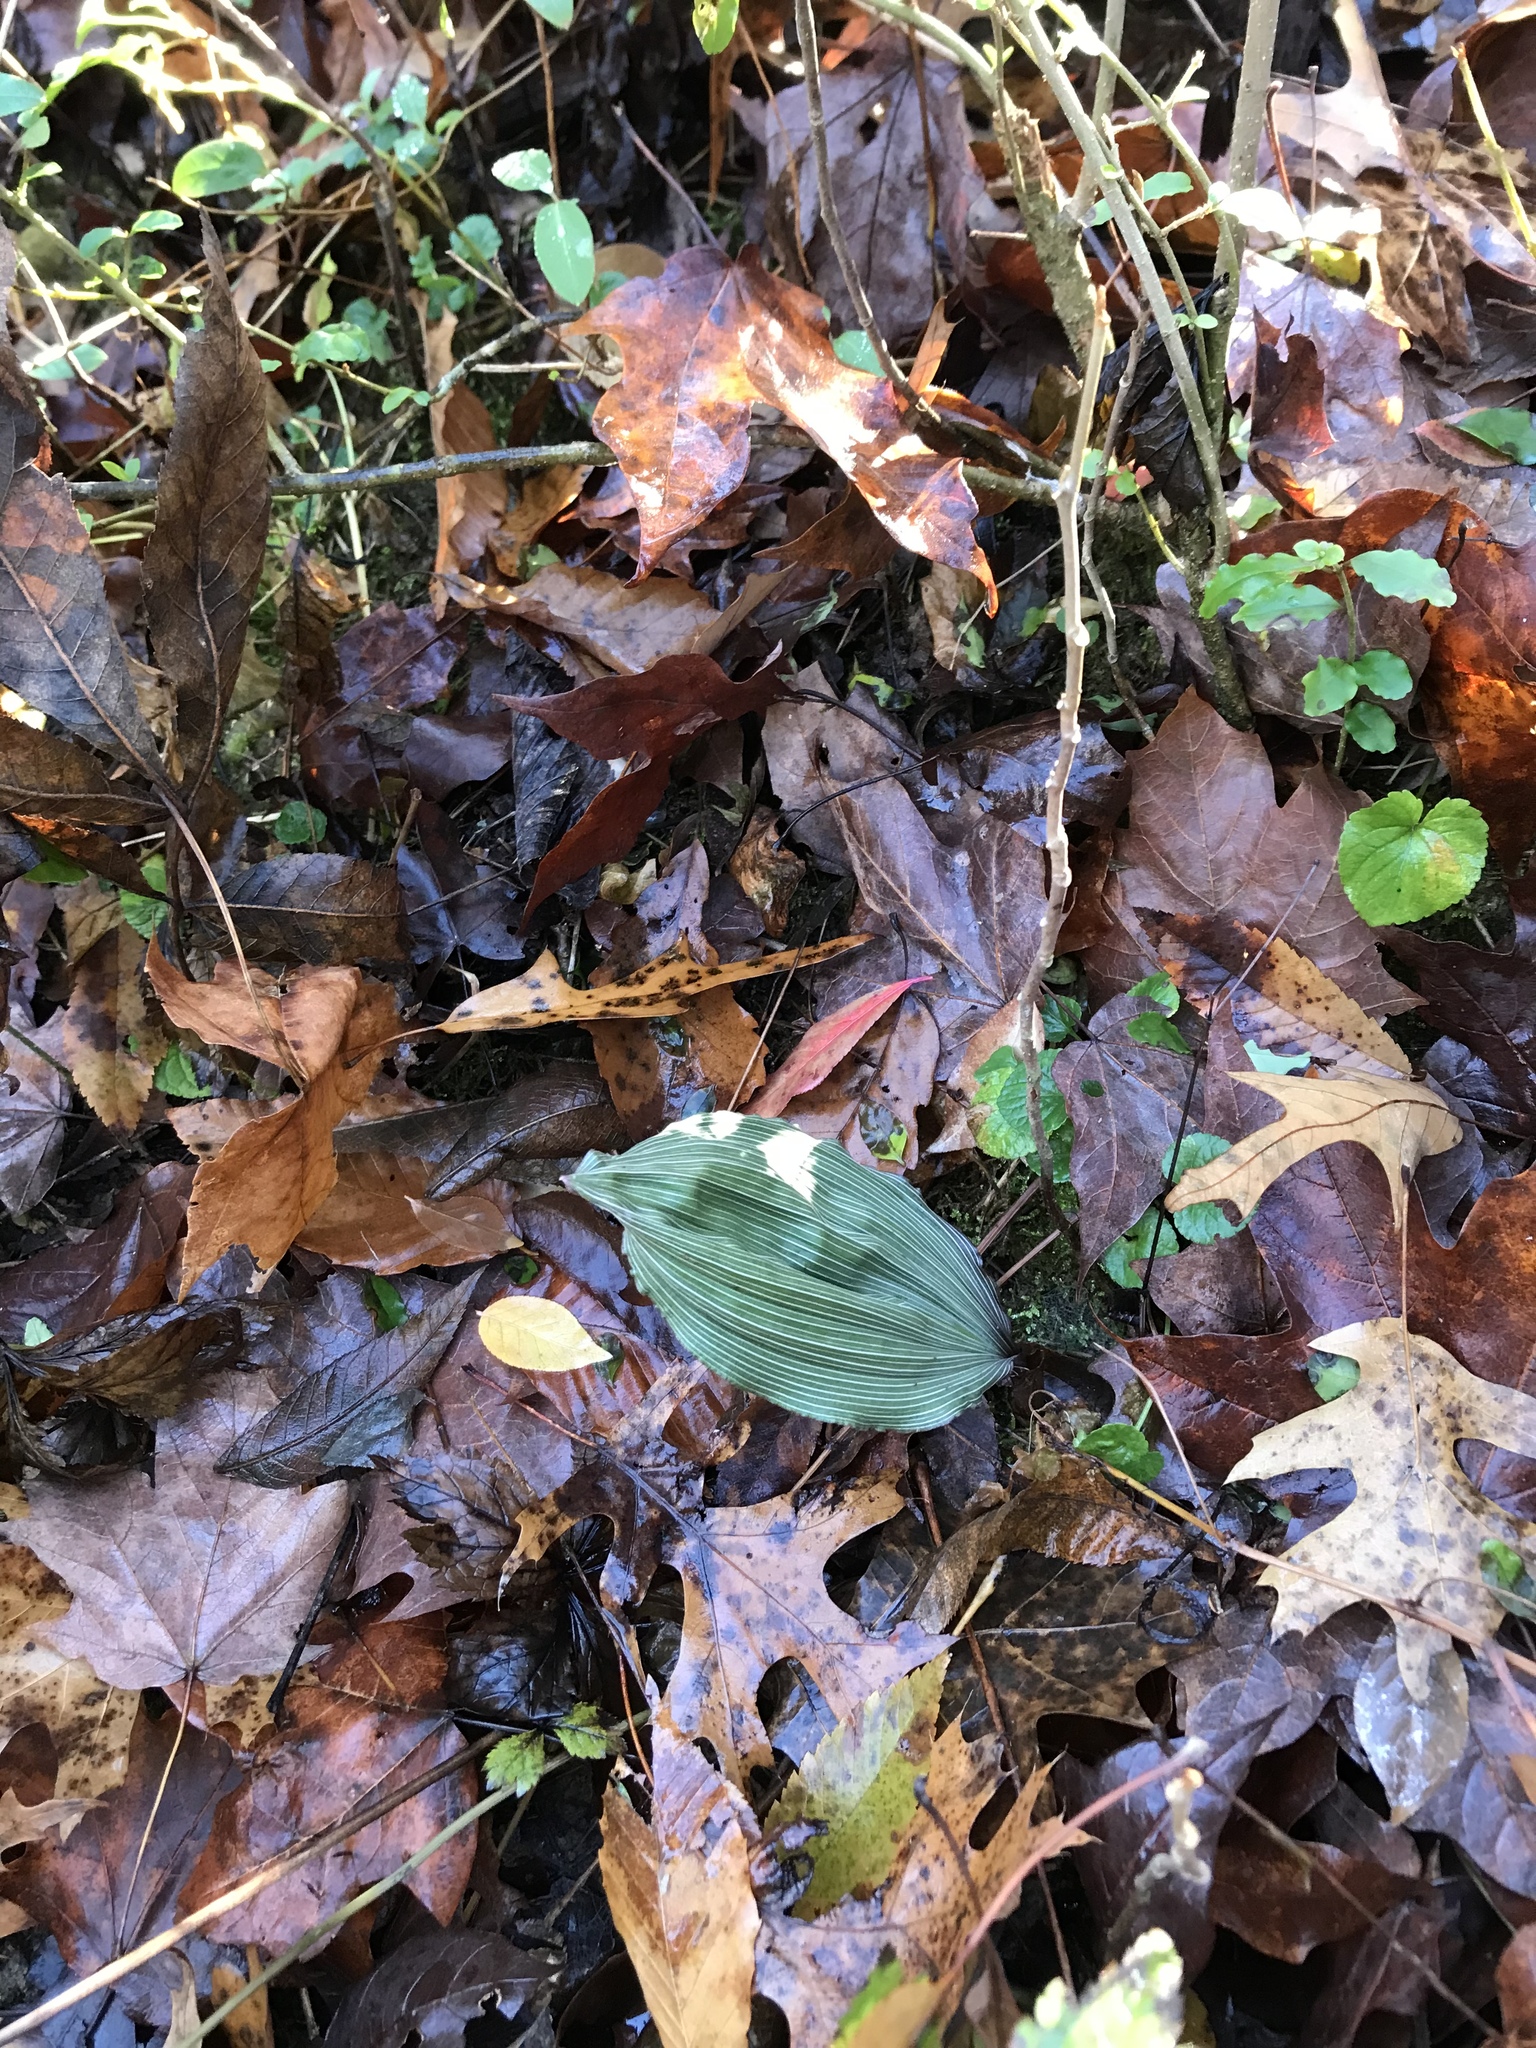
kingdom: Plantae
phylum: Tracheophyta
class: Liliopsida
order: Asparagales
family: Orchidaceae
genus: Aplectrum
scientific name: Aplectrum hyemale
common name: Adam-and-eve
